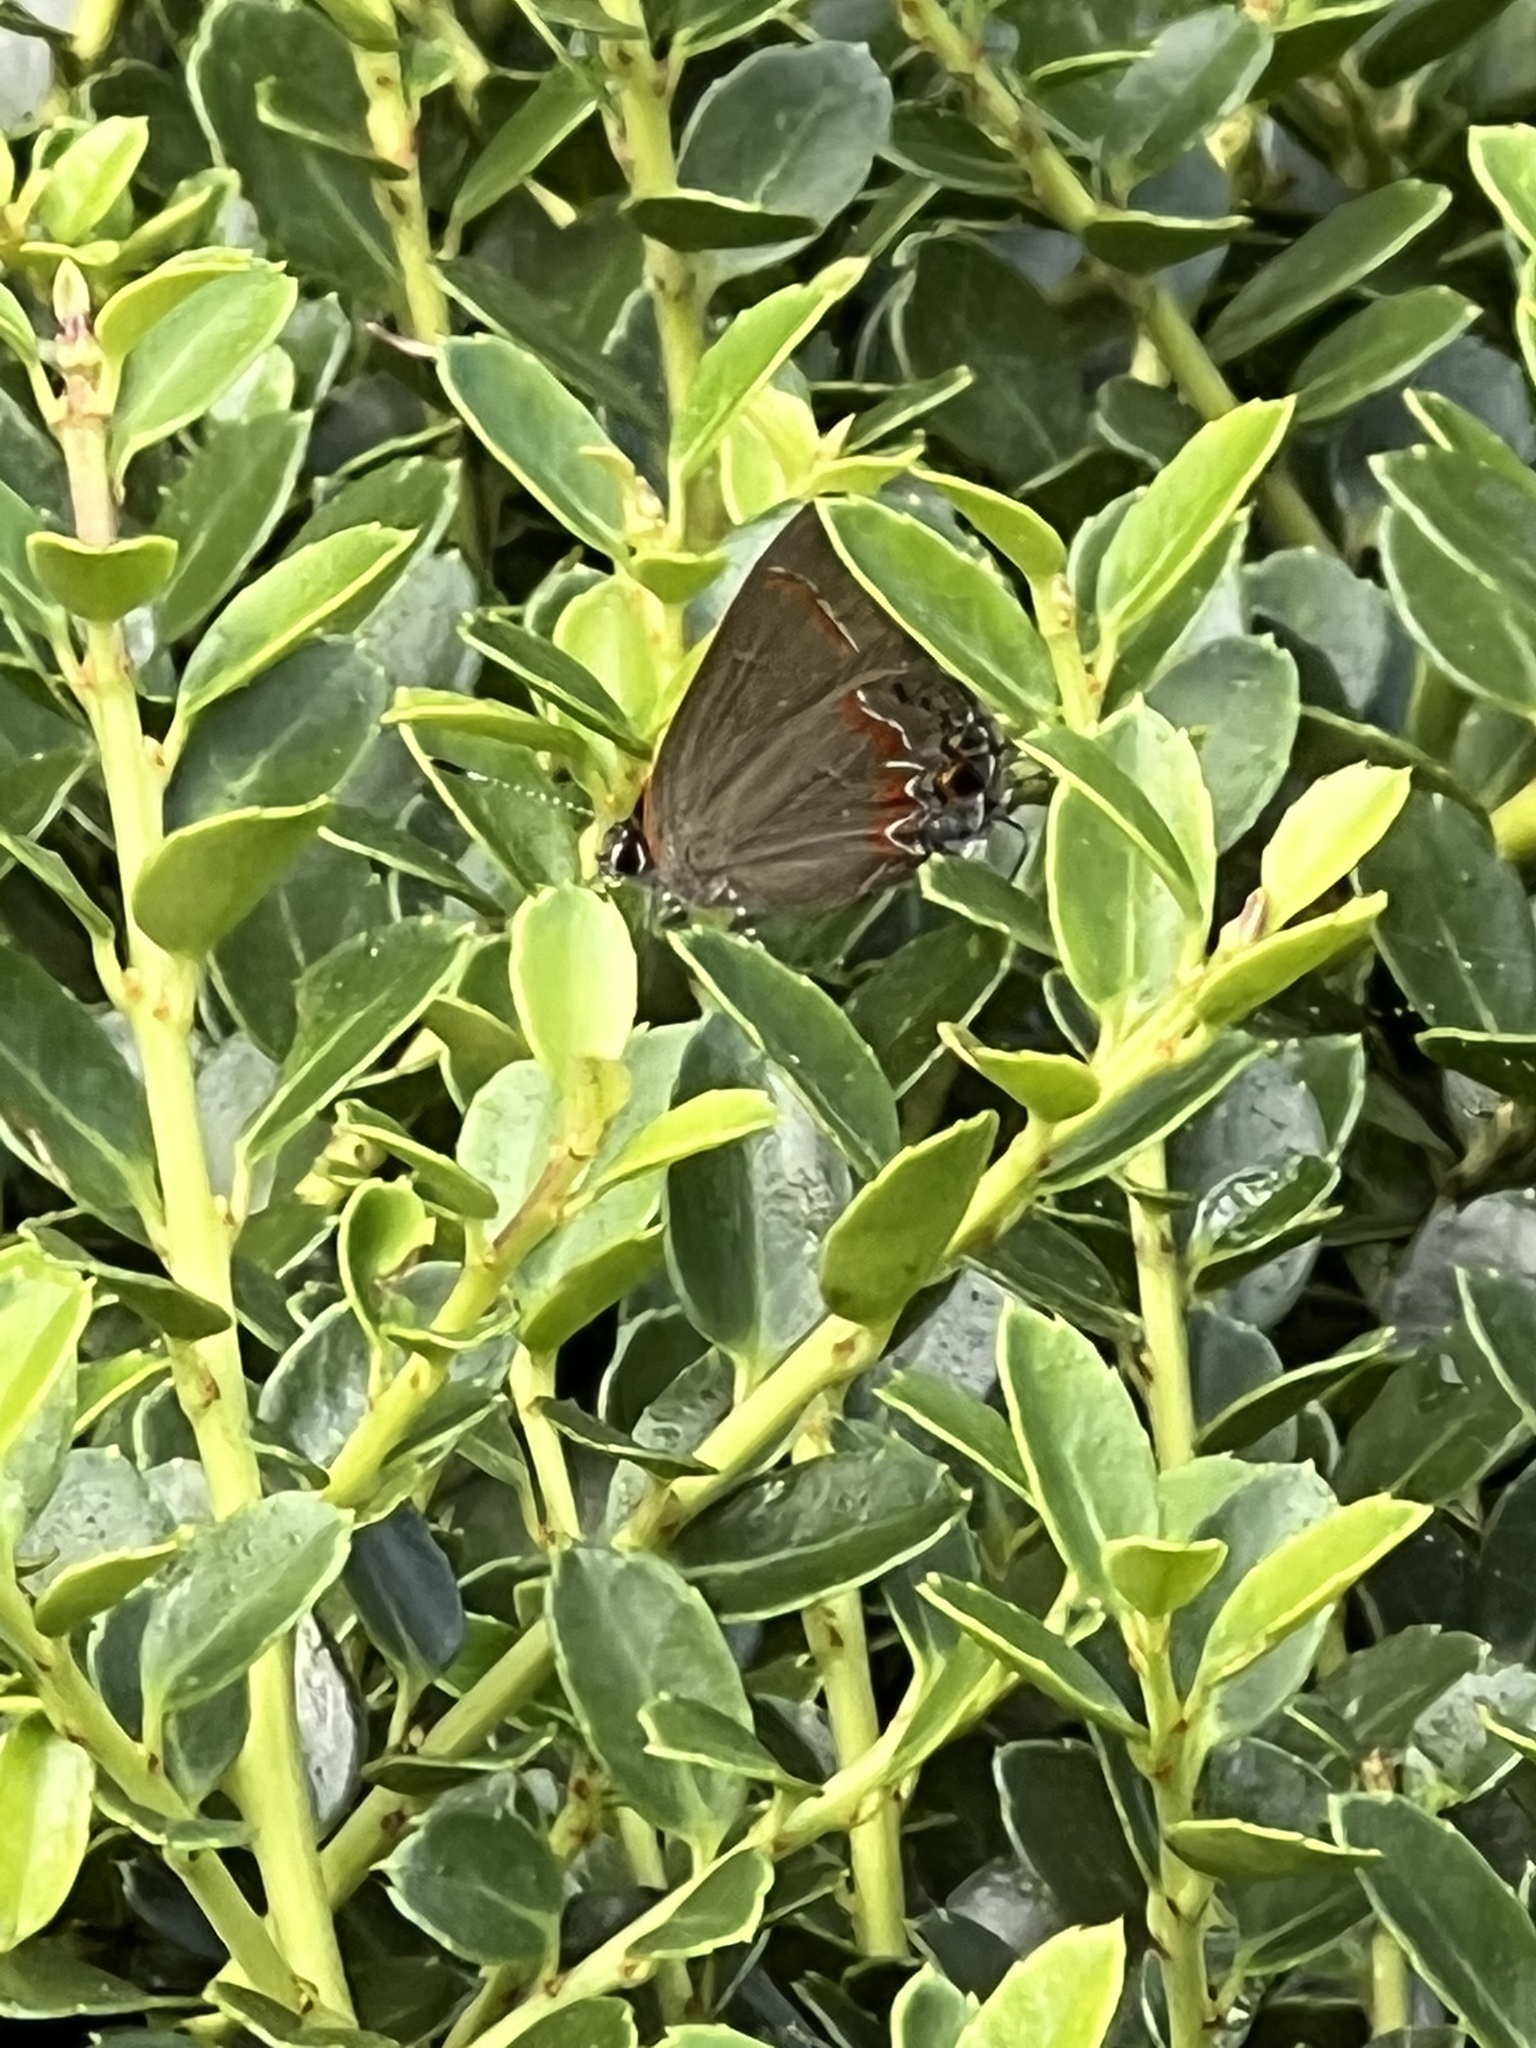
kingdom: Animalia
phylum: Arthropoda
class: Insecta
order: Lepidoptera
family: Lycaenidae
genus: Calycopis
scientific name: Calycopis cecrops
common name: Red-banded hairstreak
